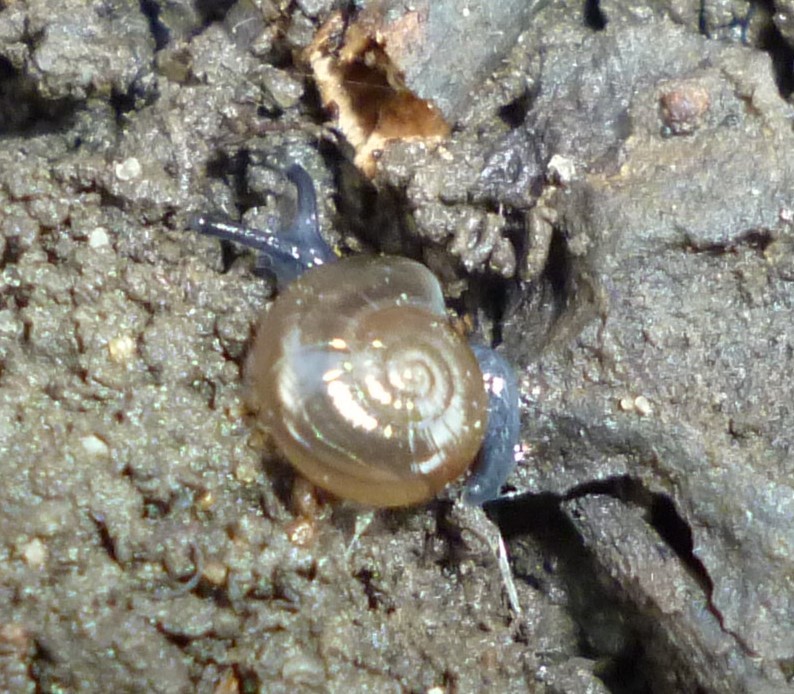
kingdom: Animalia
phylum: Mollusca
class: Gastropoda
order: Stylommatophora
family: Oxychilidae
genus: Oxychilus
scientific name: Oxychilus draparnaudi
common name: Draparnaud's glass snail
